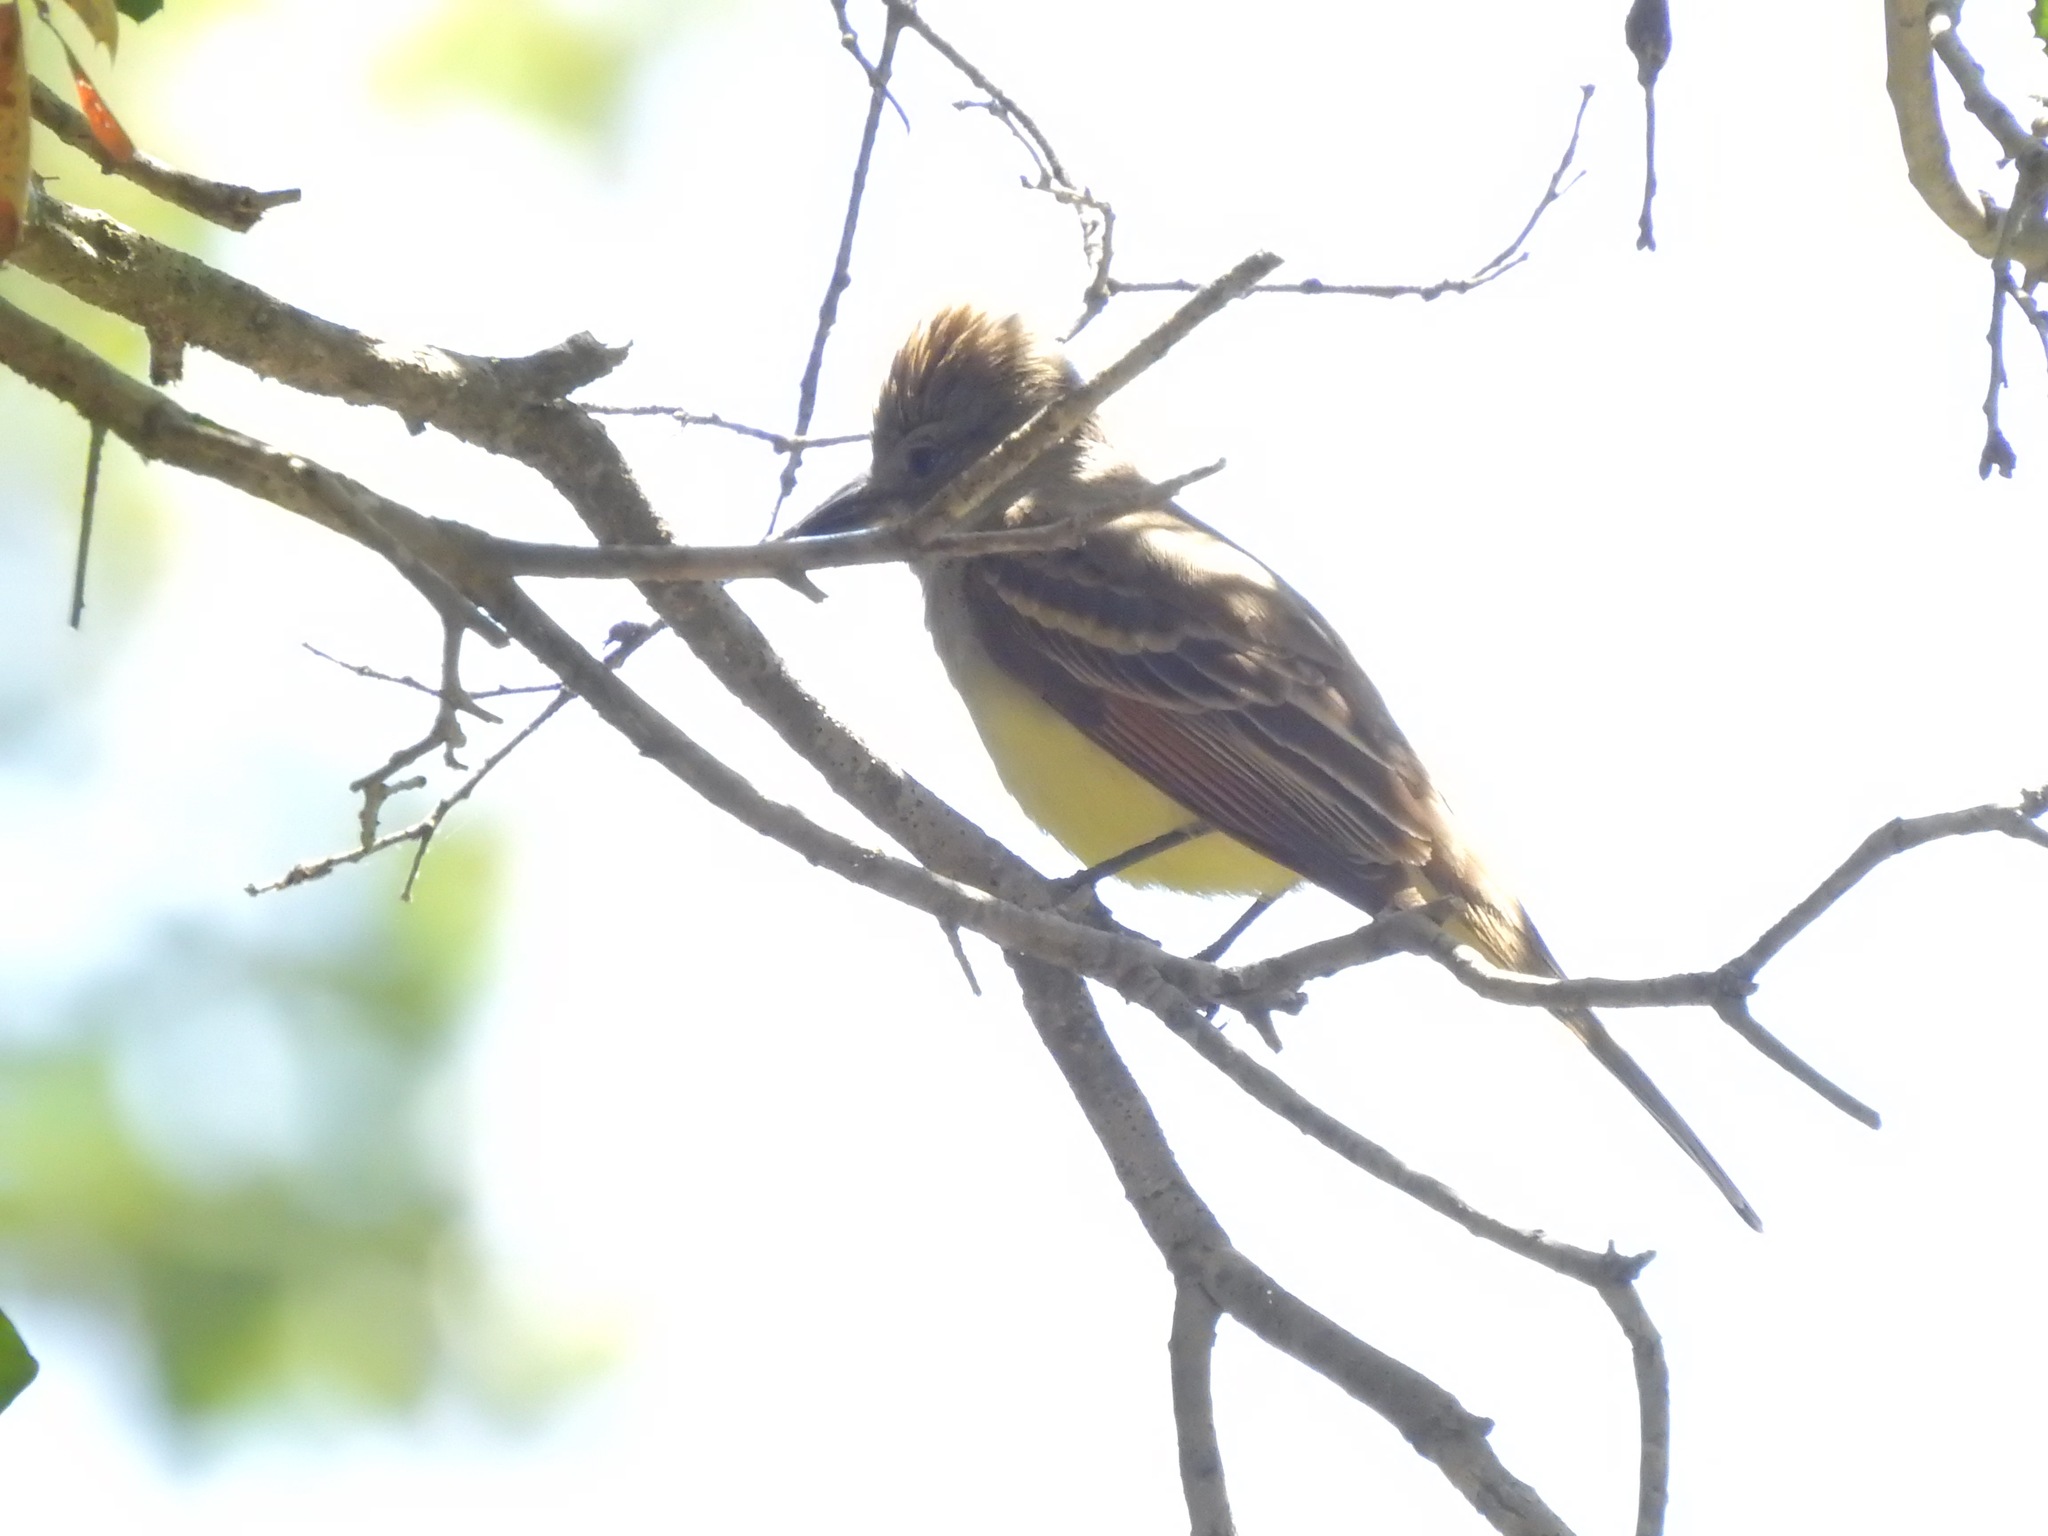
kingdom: Animalia
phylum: Chordata
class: Aves
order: Passeriformes
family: Tyrannidae
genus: Myiarchus
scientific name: Myiarchus cinerascens
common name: Ash-throated flycatcher
